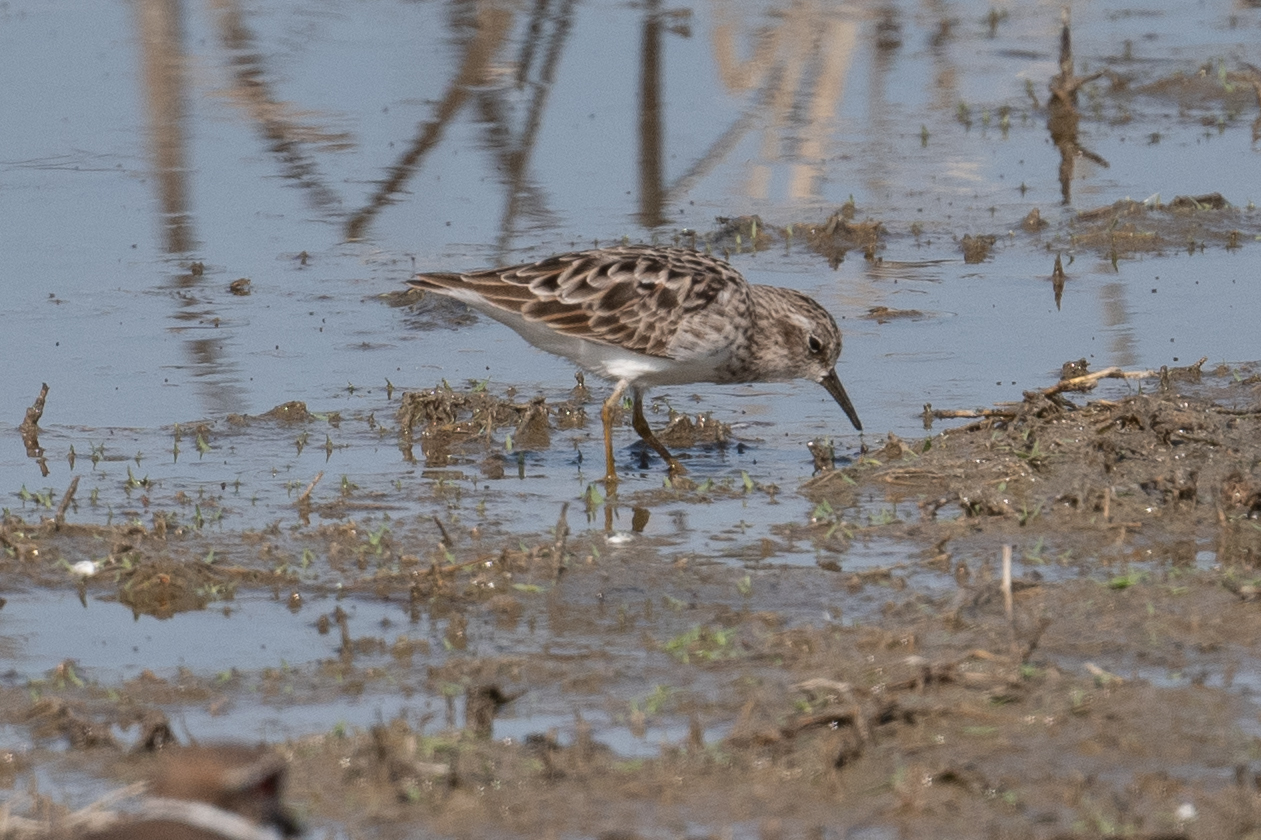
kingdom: Animalia
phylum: Chordata
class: Aves
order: Charadriiformes
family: Scolopacidae
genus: Calidris
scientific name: Calidris minutilla
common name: Least sandpiper
